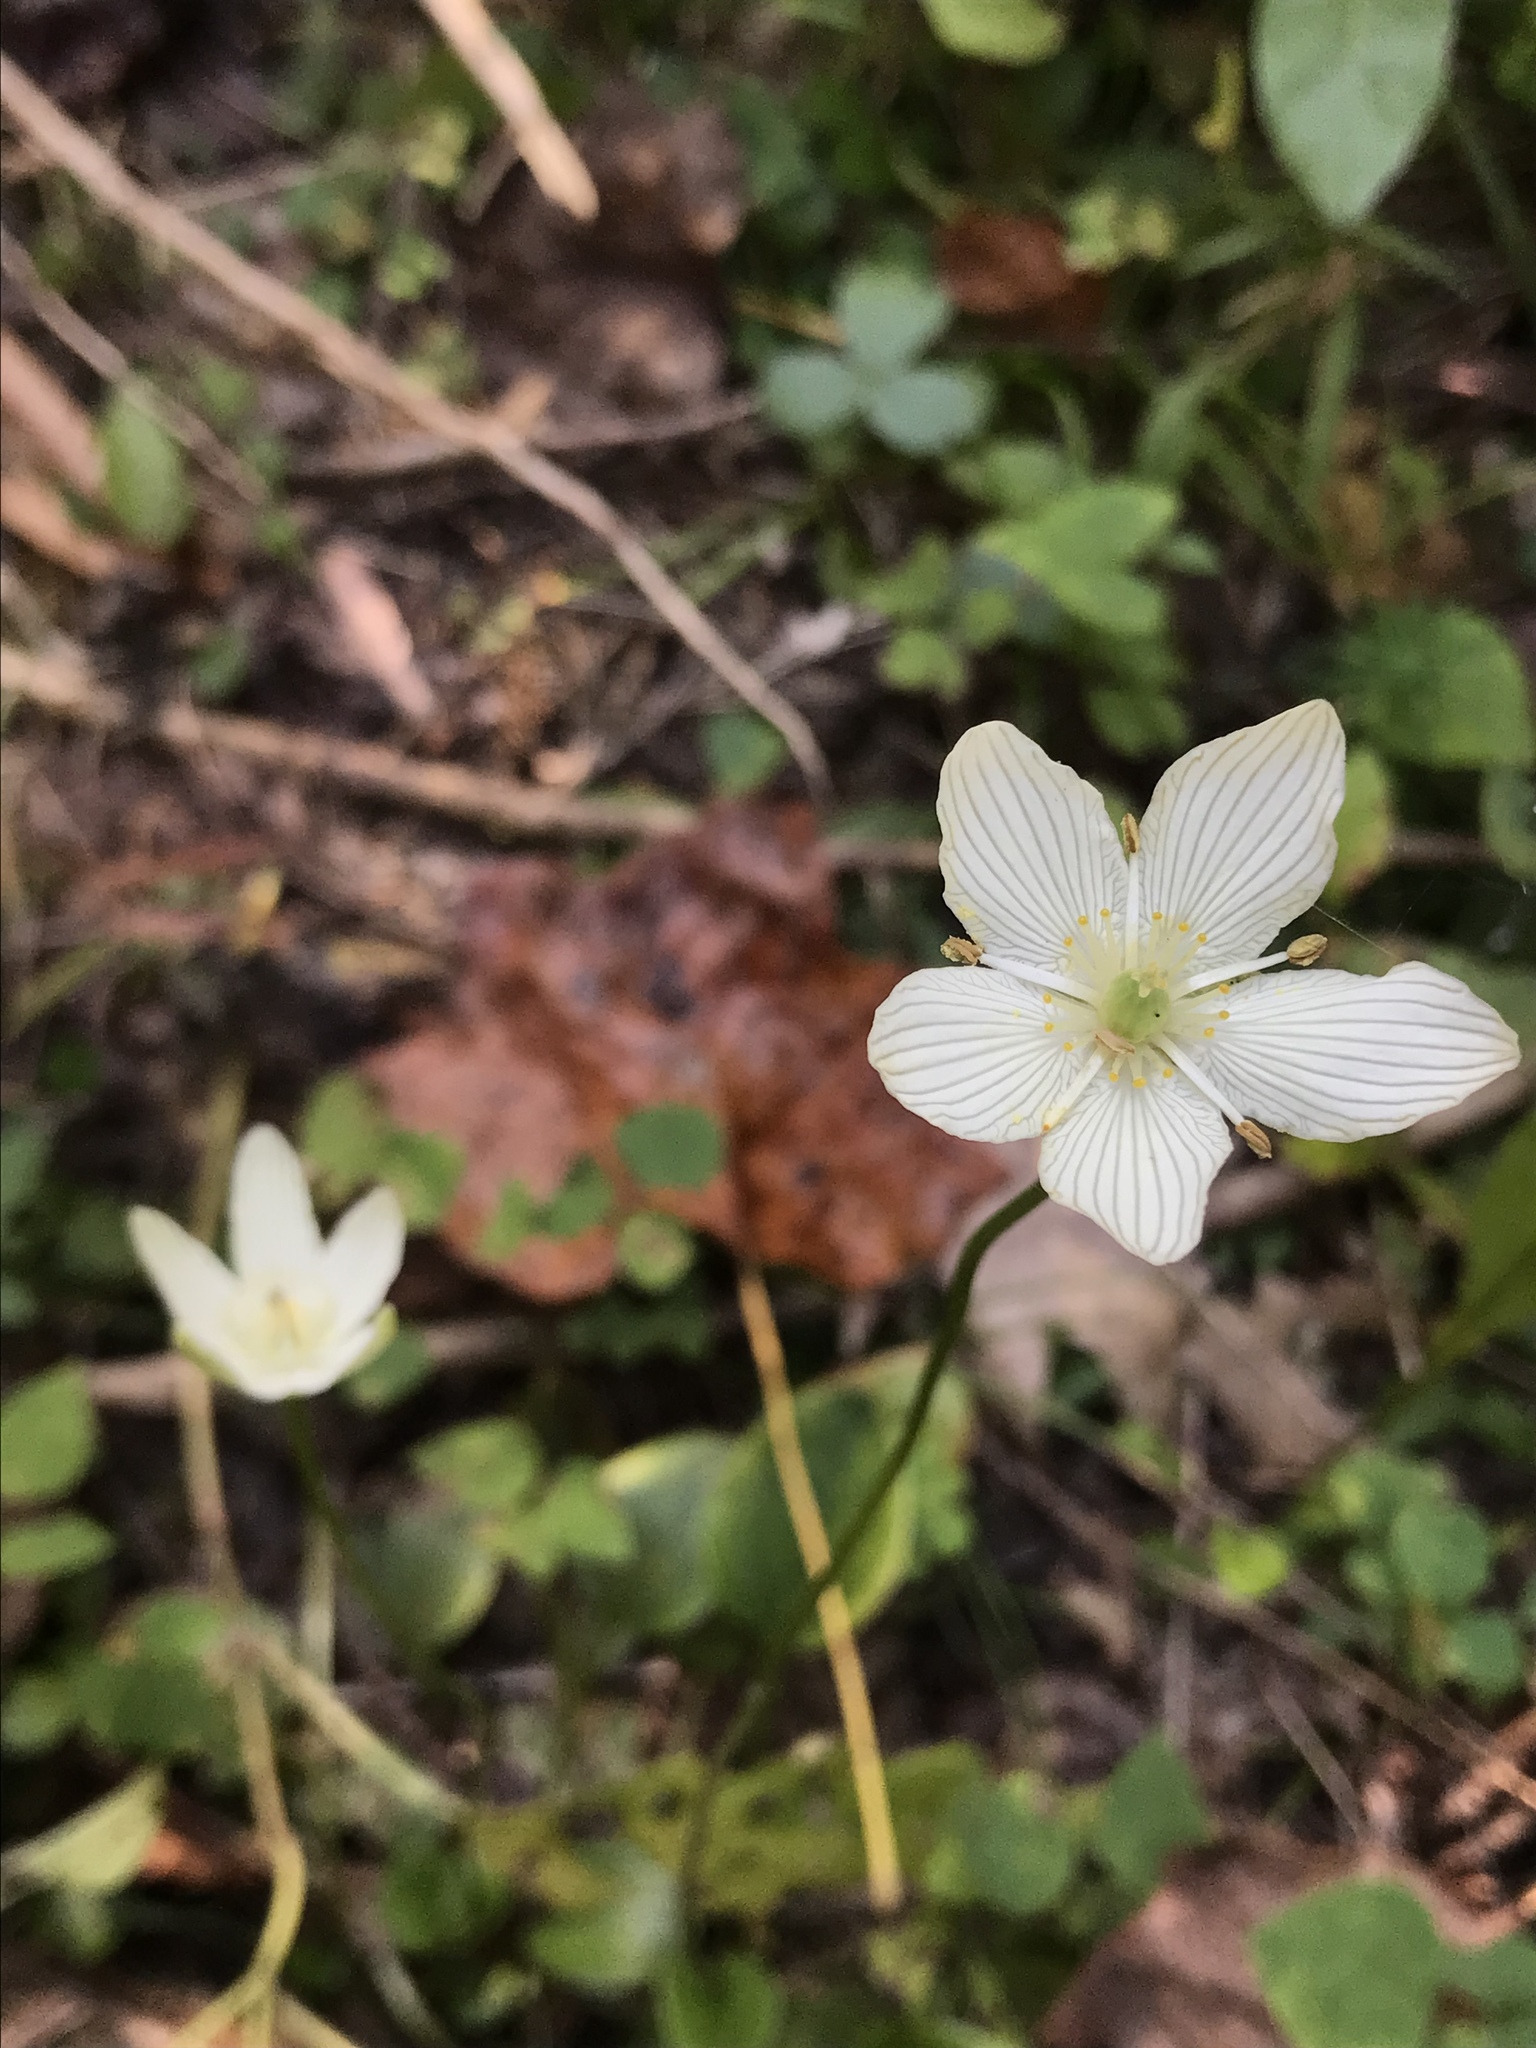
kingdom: Plantae
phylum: Tracheophyta
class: Magnoliopsida
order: Celastrales
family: Parnassiaceae
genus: Parnassia
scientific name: Parnassia glauca
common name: American grass-of-parnassus
